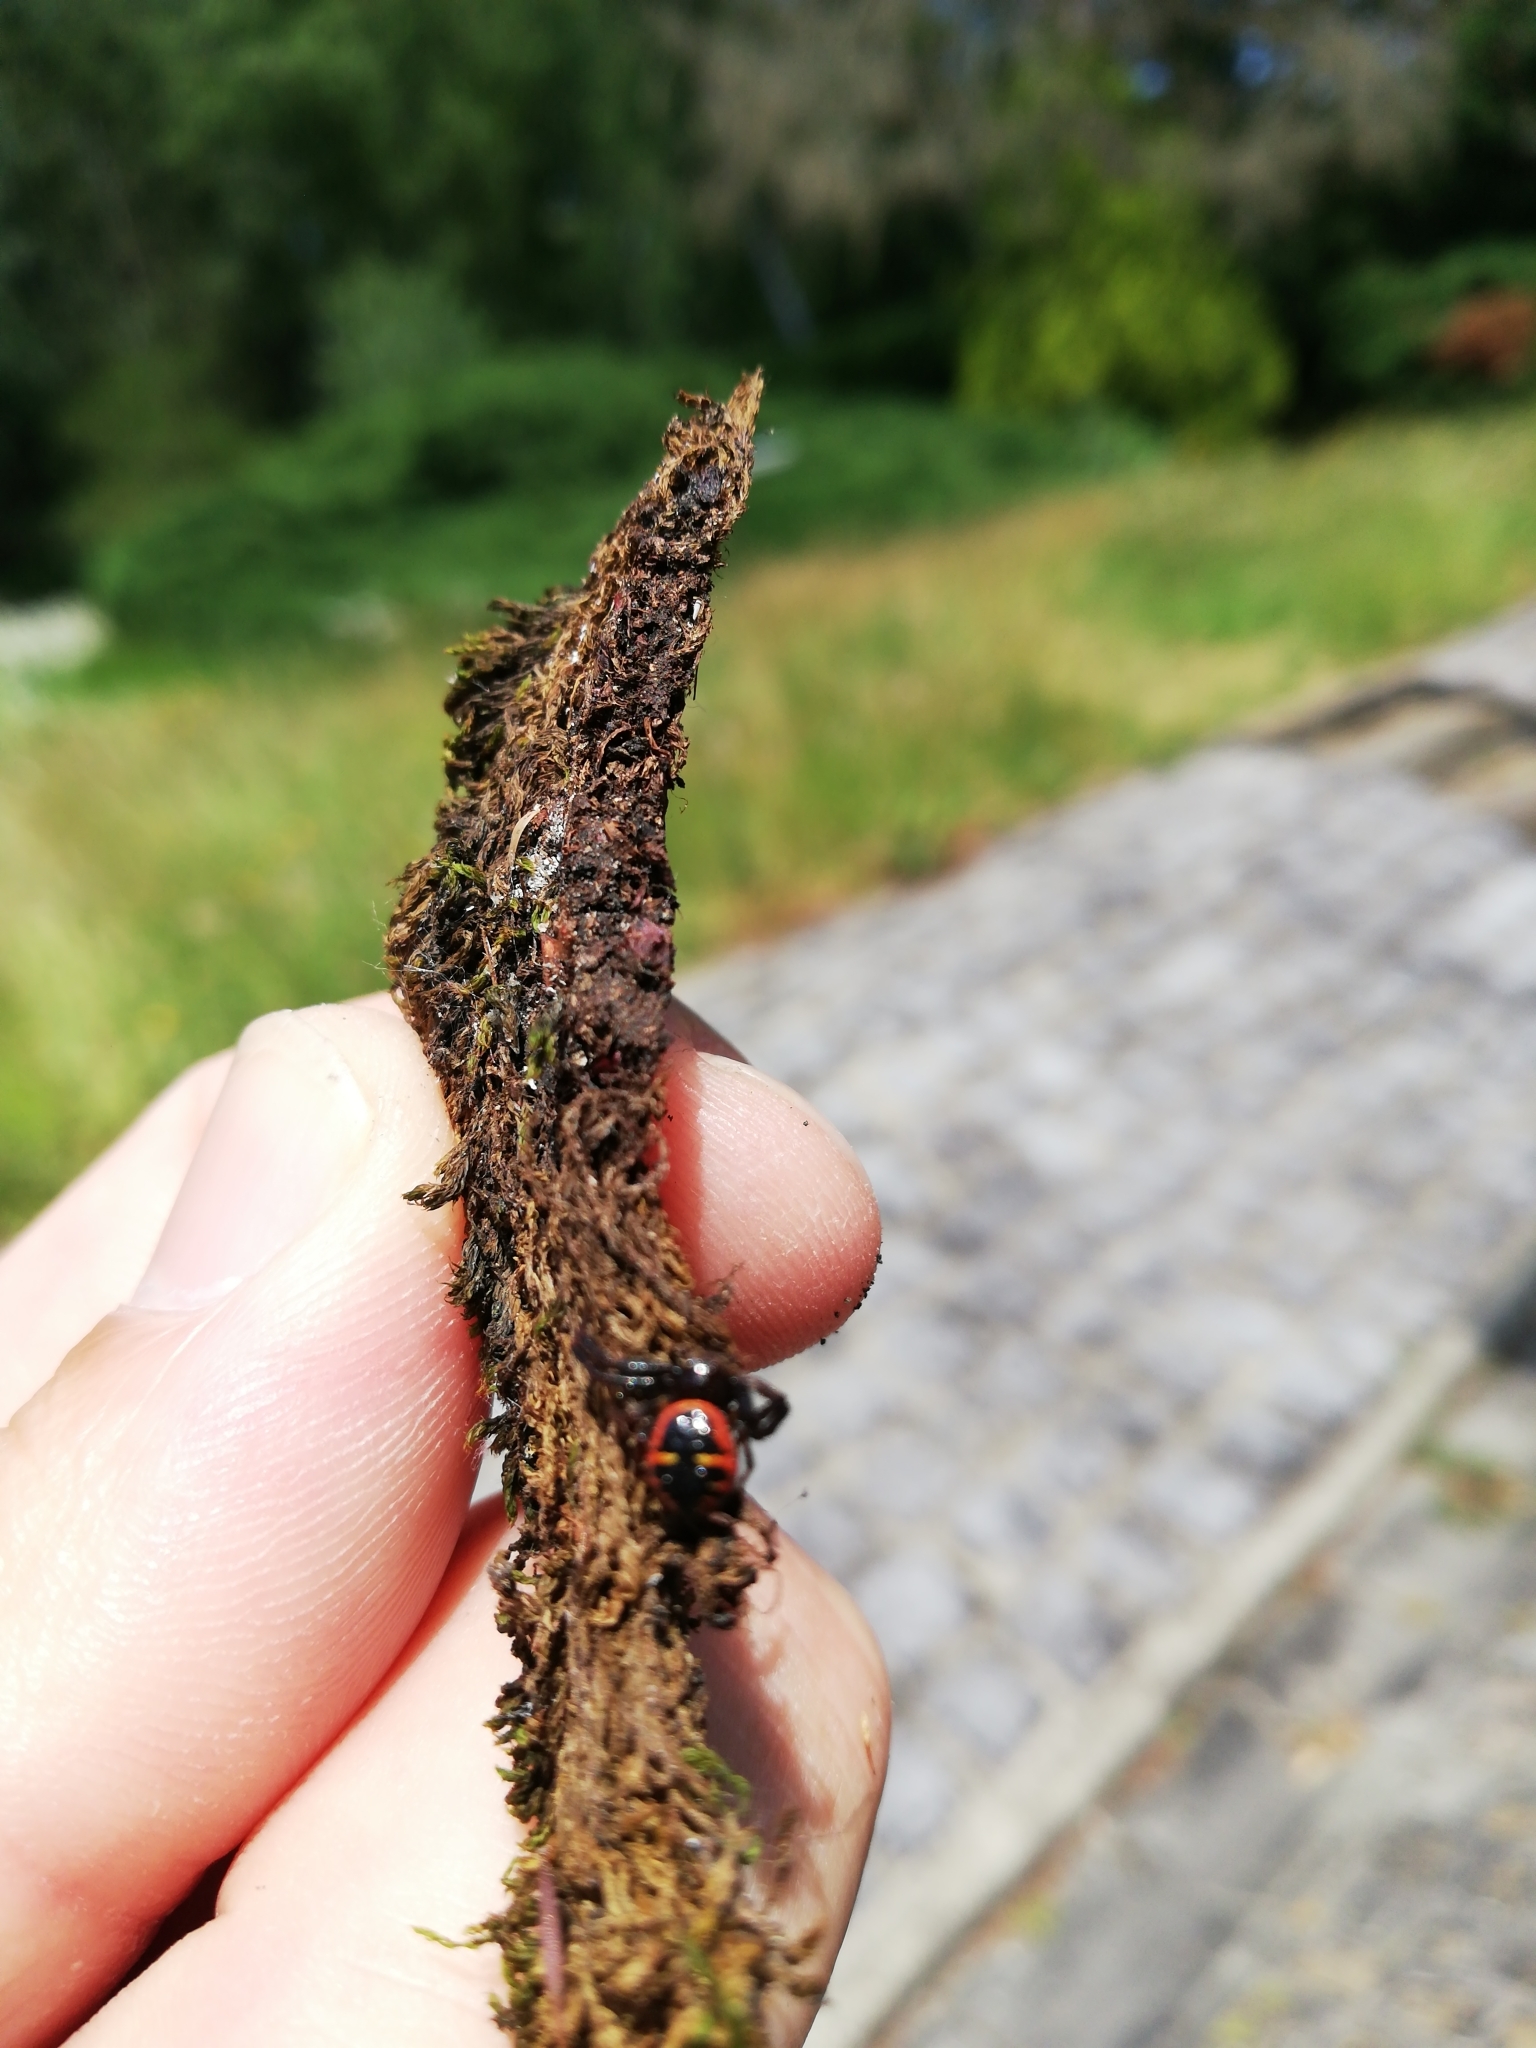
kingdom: Animalia
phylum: Arthropoda
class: Arachnida
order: Araneae
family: Thomisidae
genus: Synema
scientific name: Synema globosum
